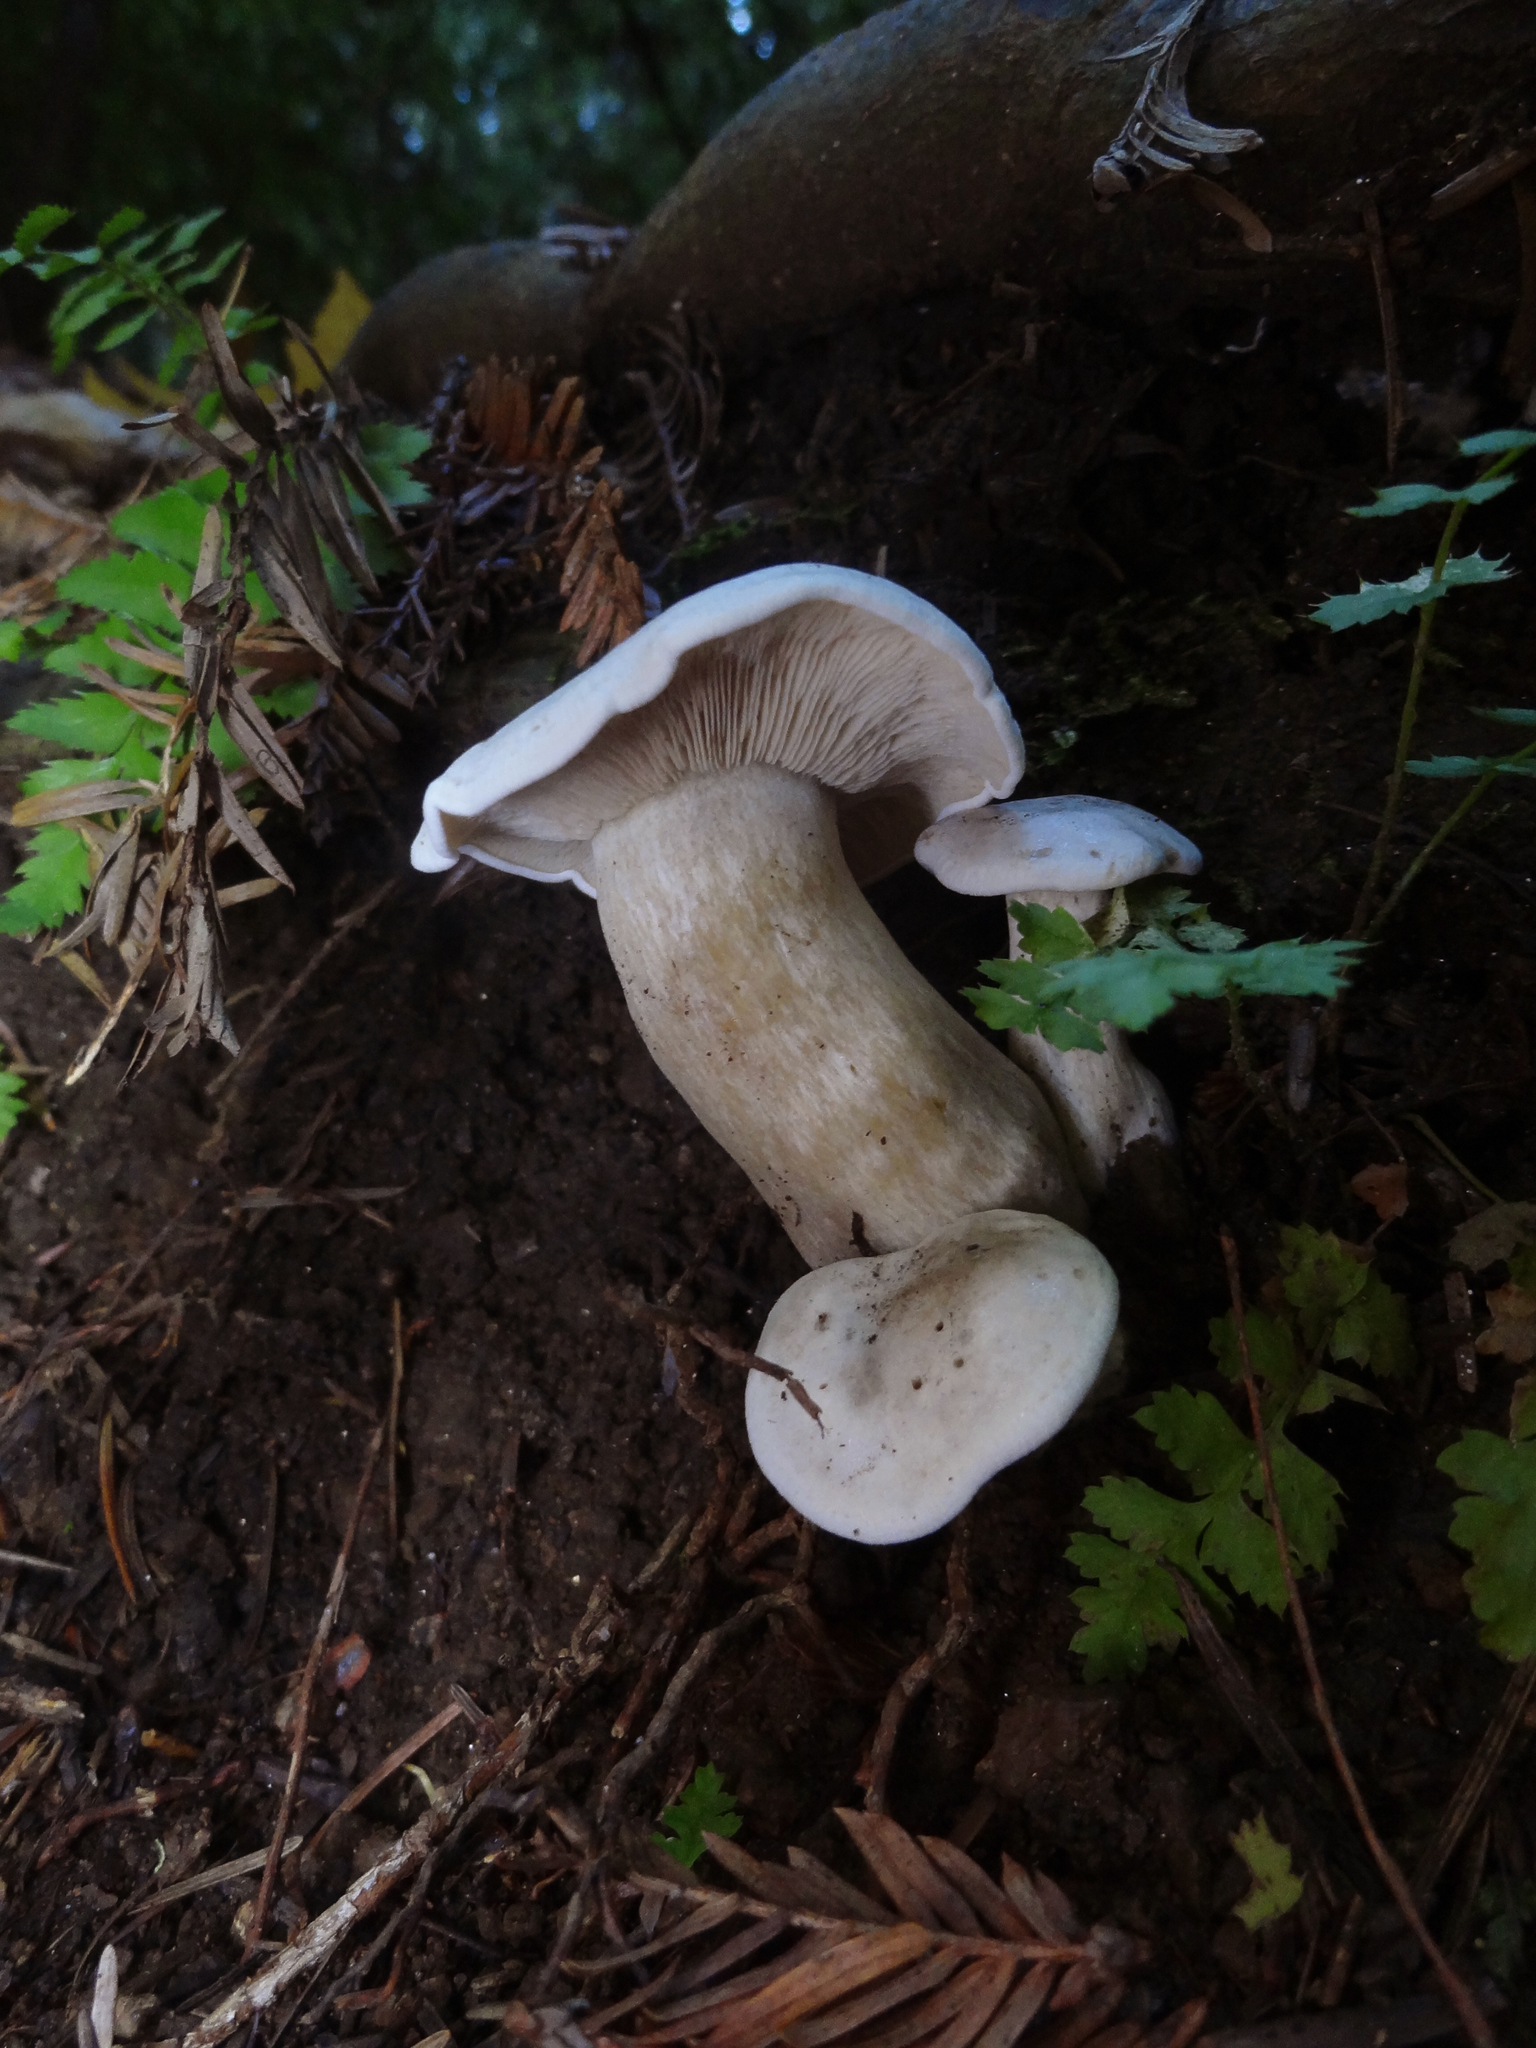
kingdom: Fungi
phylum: Basidiomycota
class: Agaricomycetes
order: Agaricales
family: Tricholomataceae
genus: Lepista
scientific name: Lepista subconnexa
